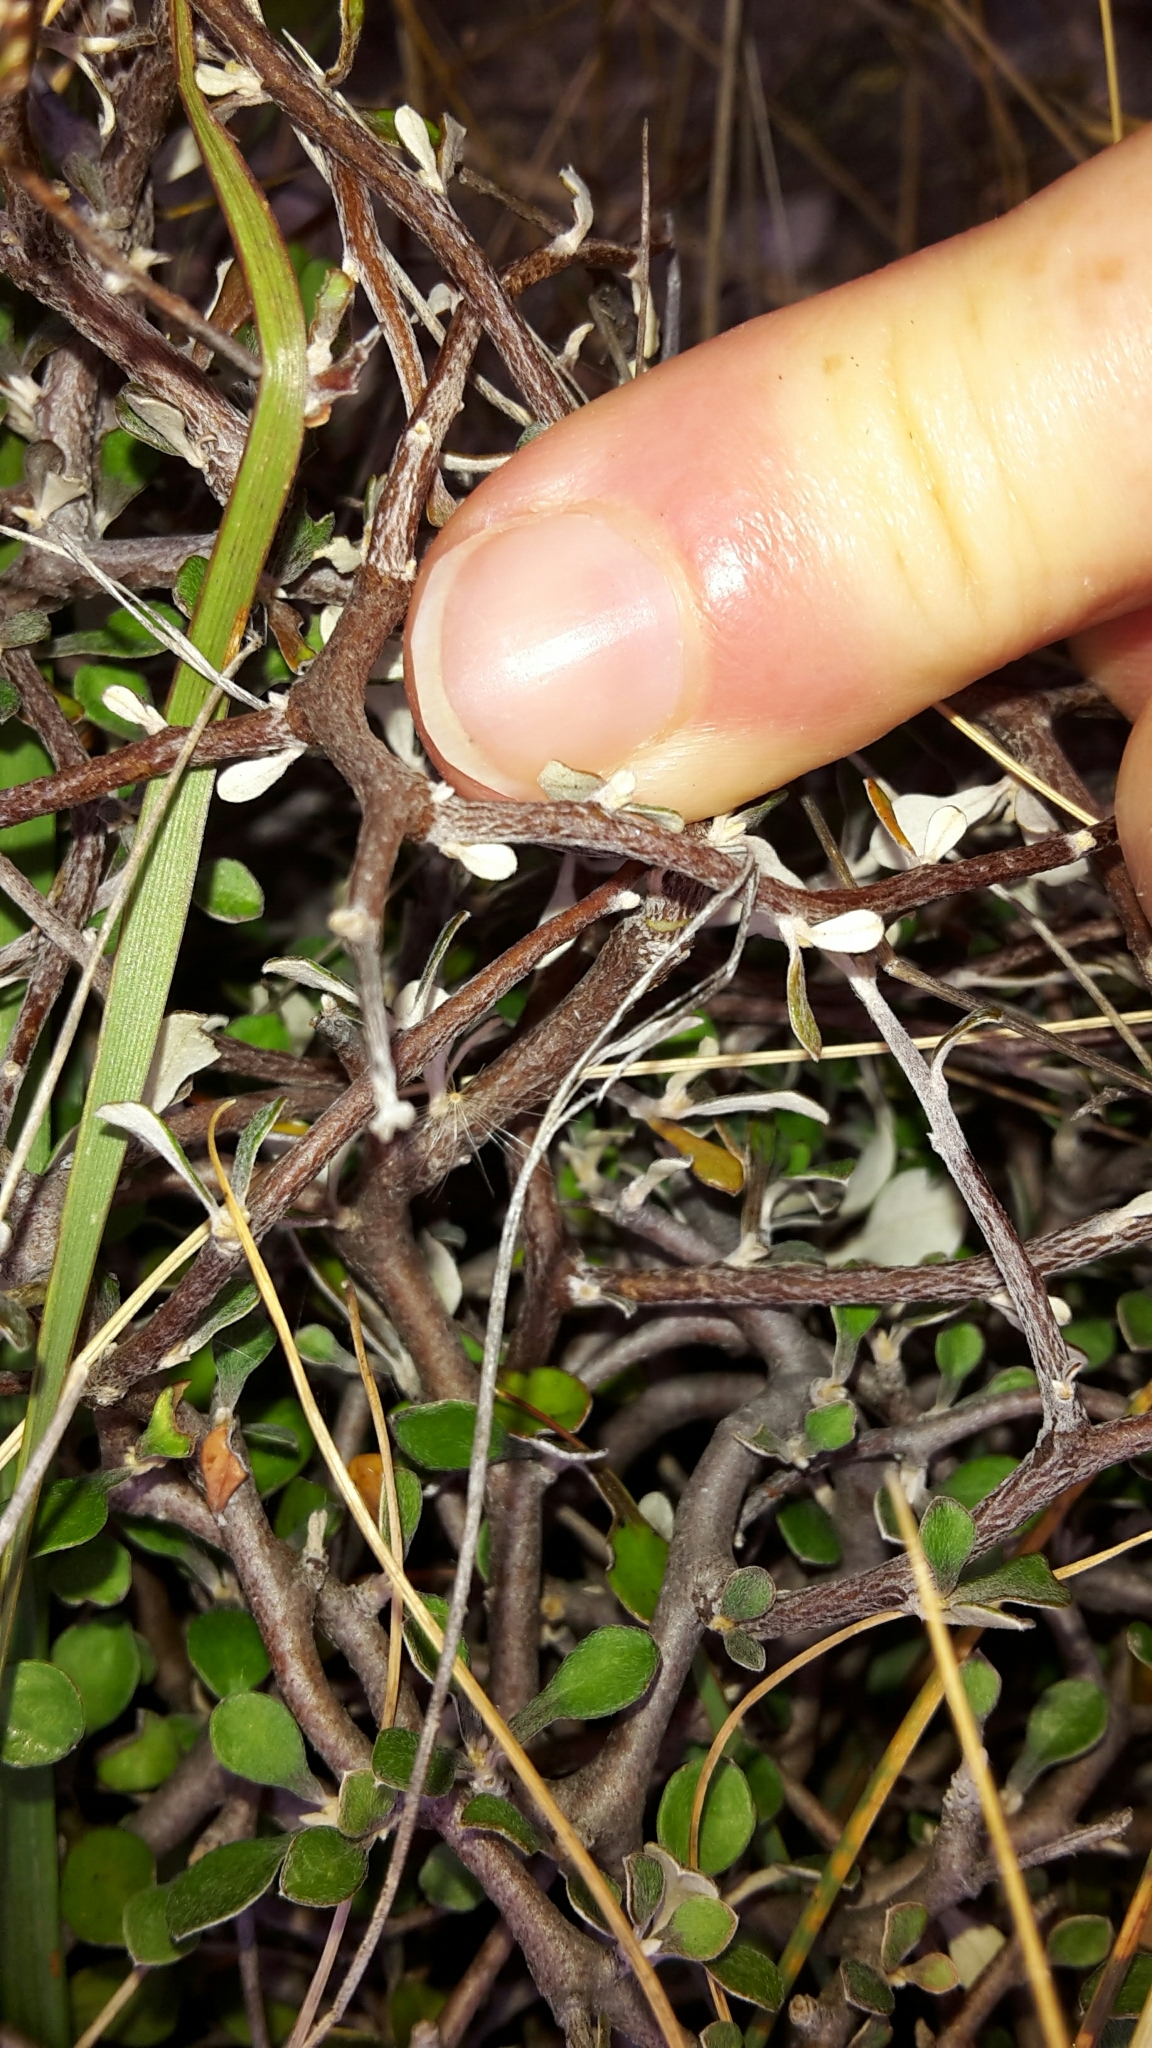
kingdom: Plantae
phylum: Tracheophyta
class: Magnoliopsida
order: Asterales
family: Argophyllaceae
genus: Corokia
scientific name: Corokia cotoneaster
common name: Wire nettingbush
